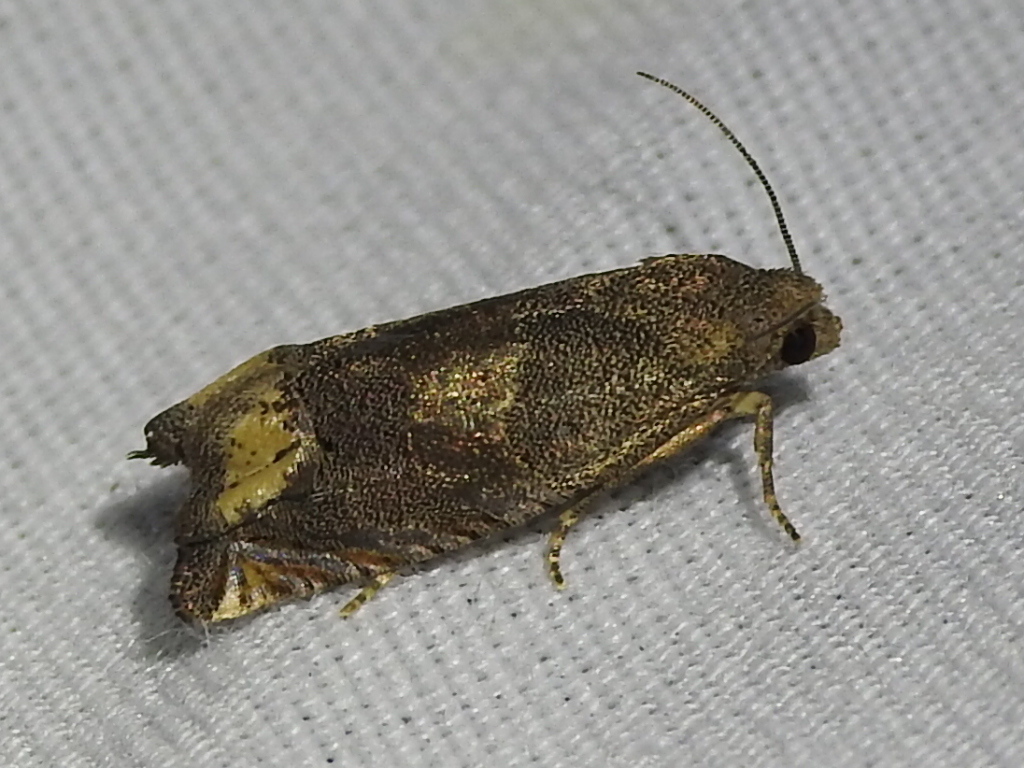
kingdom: Animalia
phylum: Arthropoda
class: Insecta
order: Lepidoptera
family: Tortricidae
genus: Epiblema
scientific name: Epiblema strenuana
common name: Ragweed borer moth
